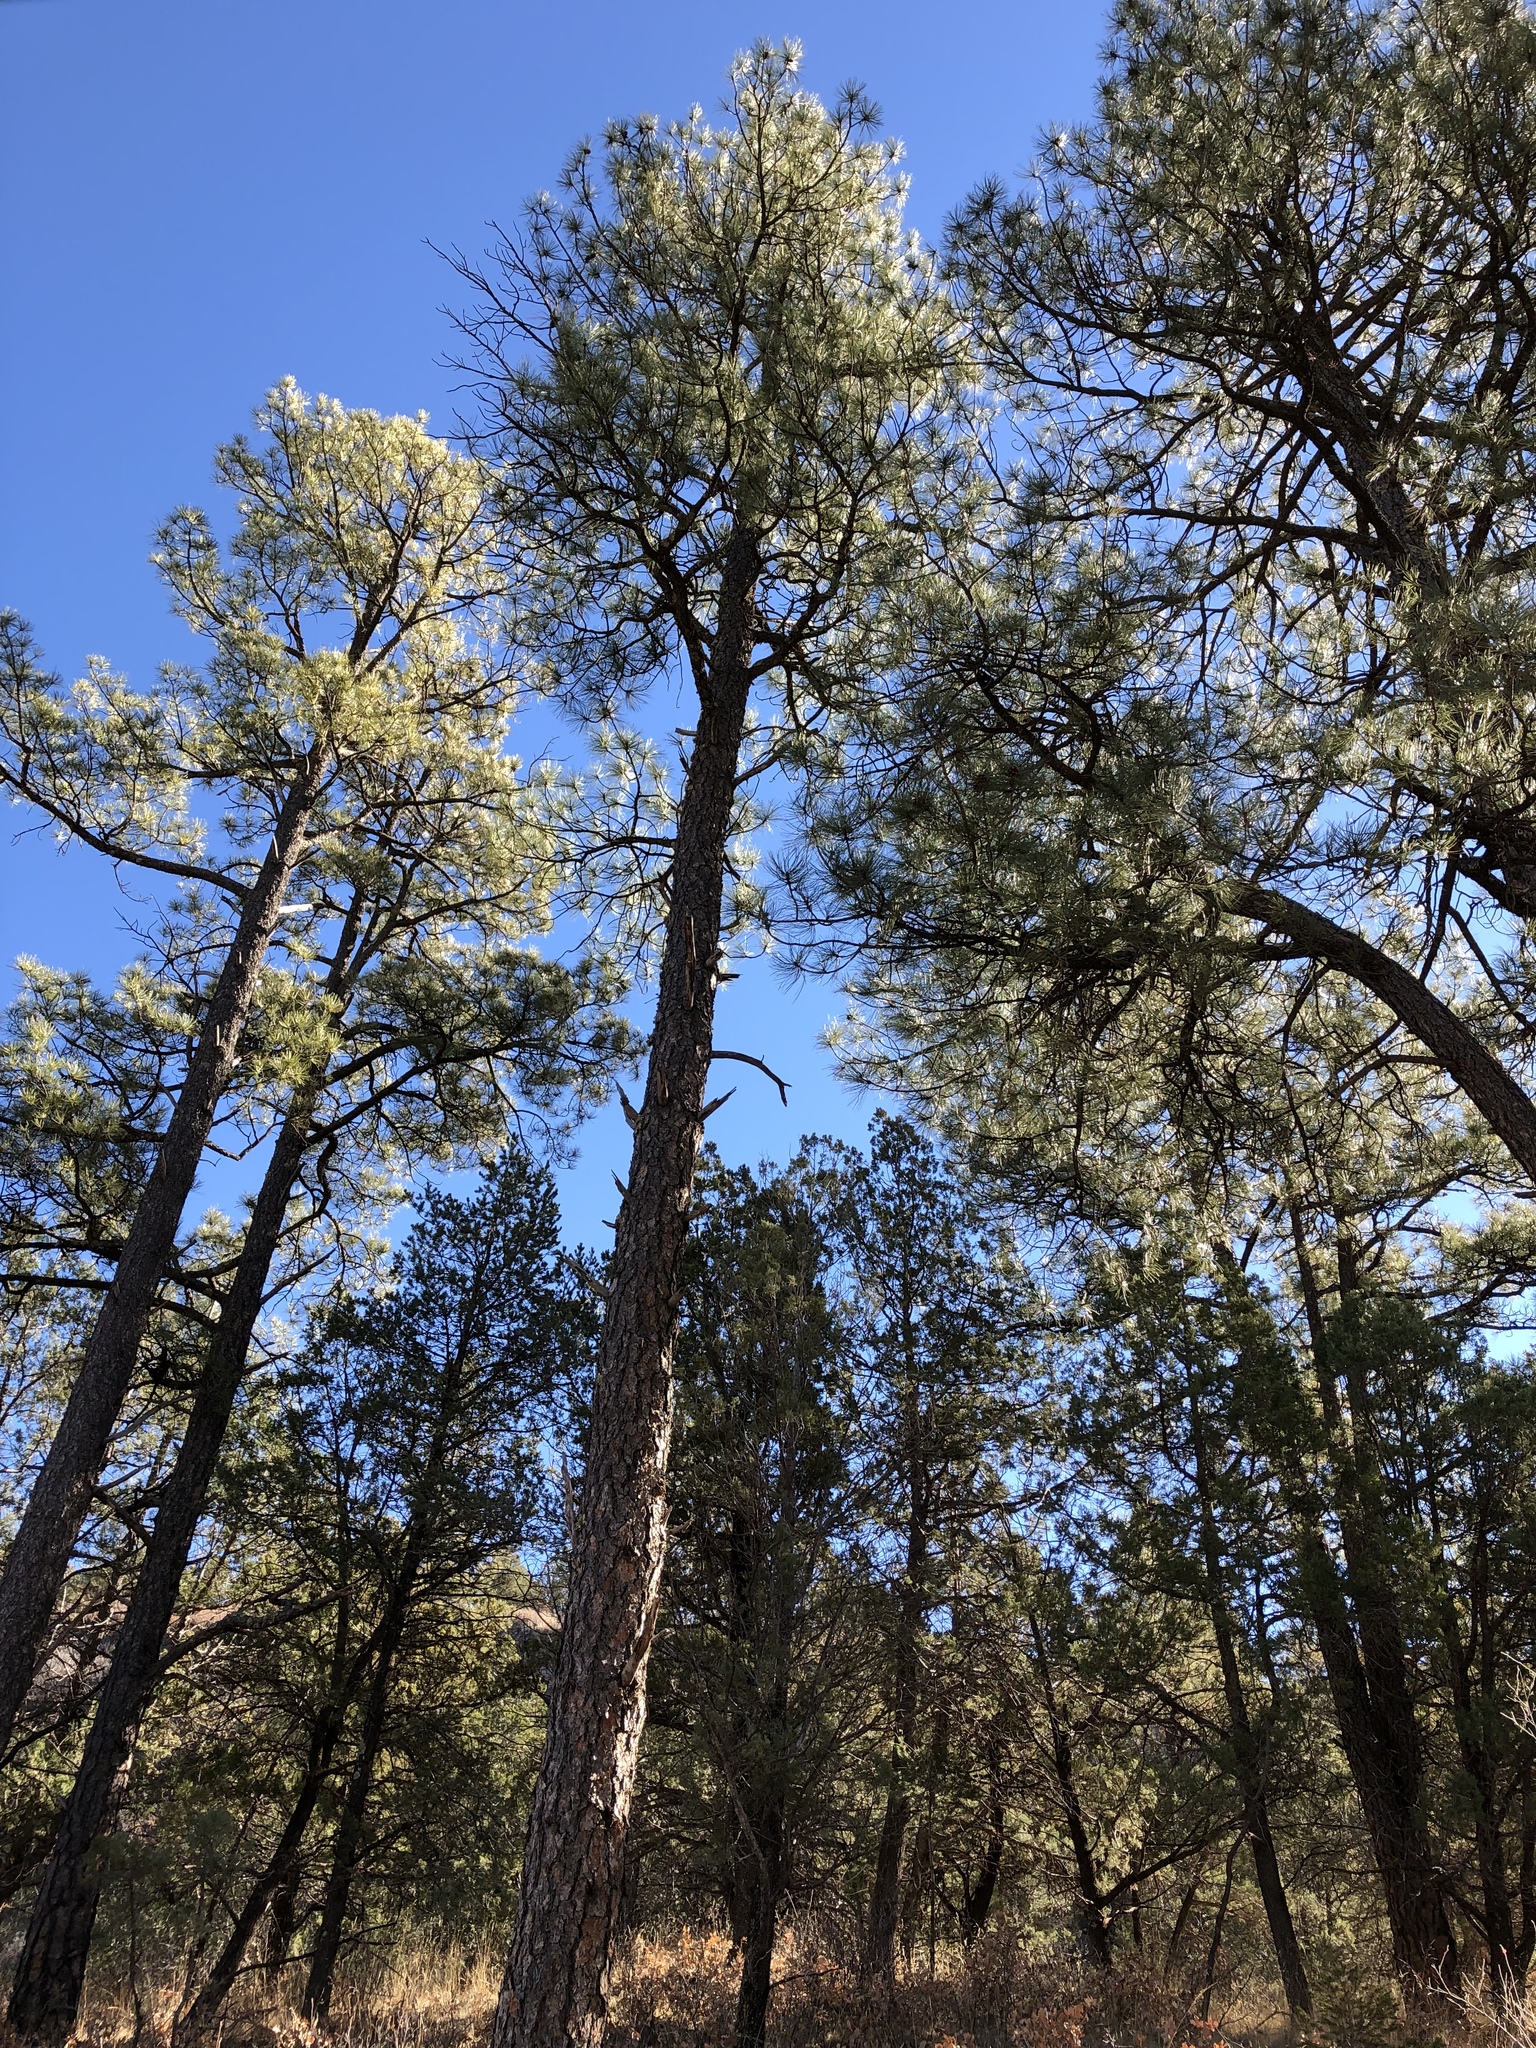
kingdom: Plantae
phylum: Tracheophyta
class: Pinopsida
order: Pinales
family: Pinaceae
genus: Pinus
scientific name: Pinus ponderosa
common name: Western yellow-pine
